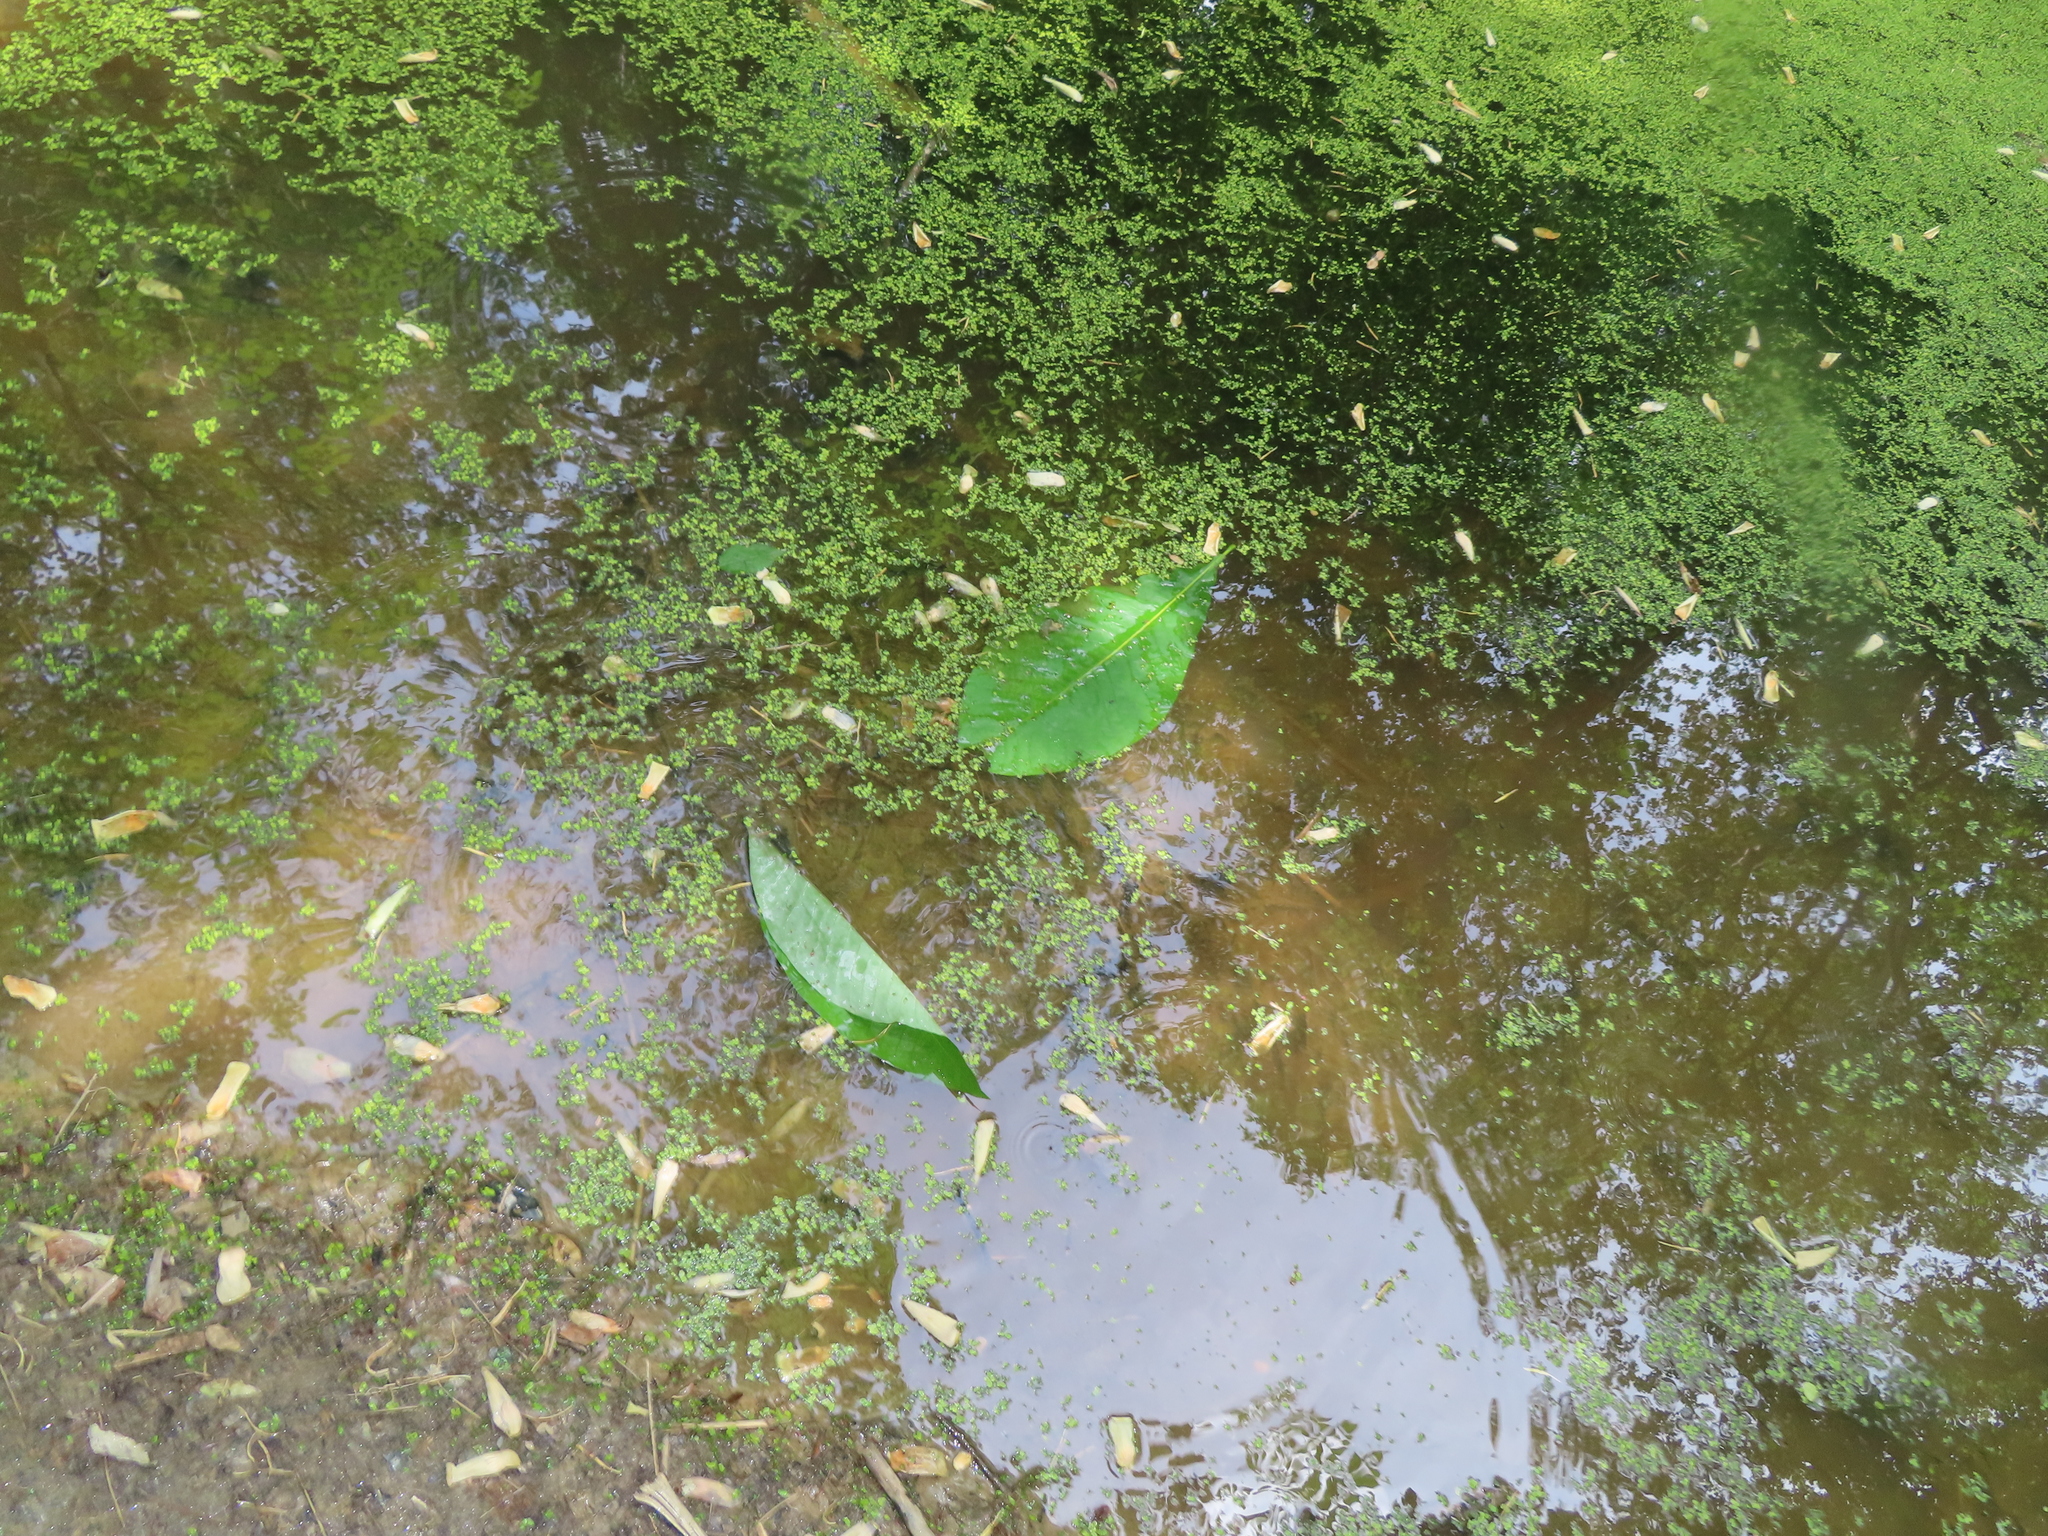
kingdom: Plantae
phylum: Tracheophyta
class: Magnoliopsida
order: Magnoliales
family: Magnoliaceae
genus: Magnolia
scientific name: Magnolia tripetala
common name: Umbrella magnolia
